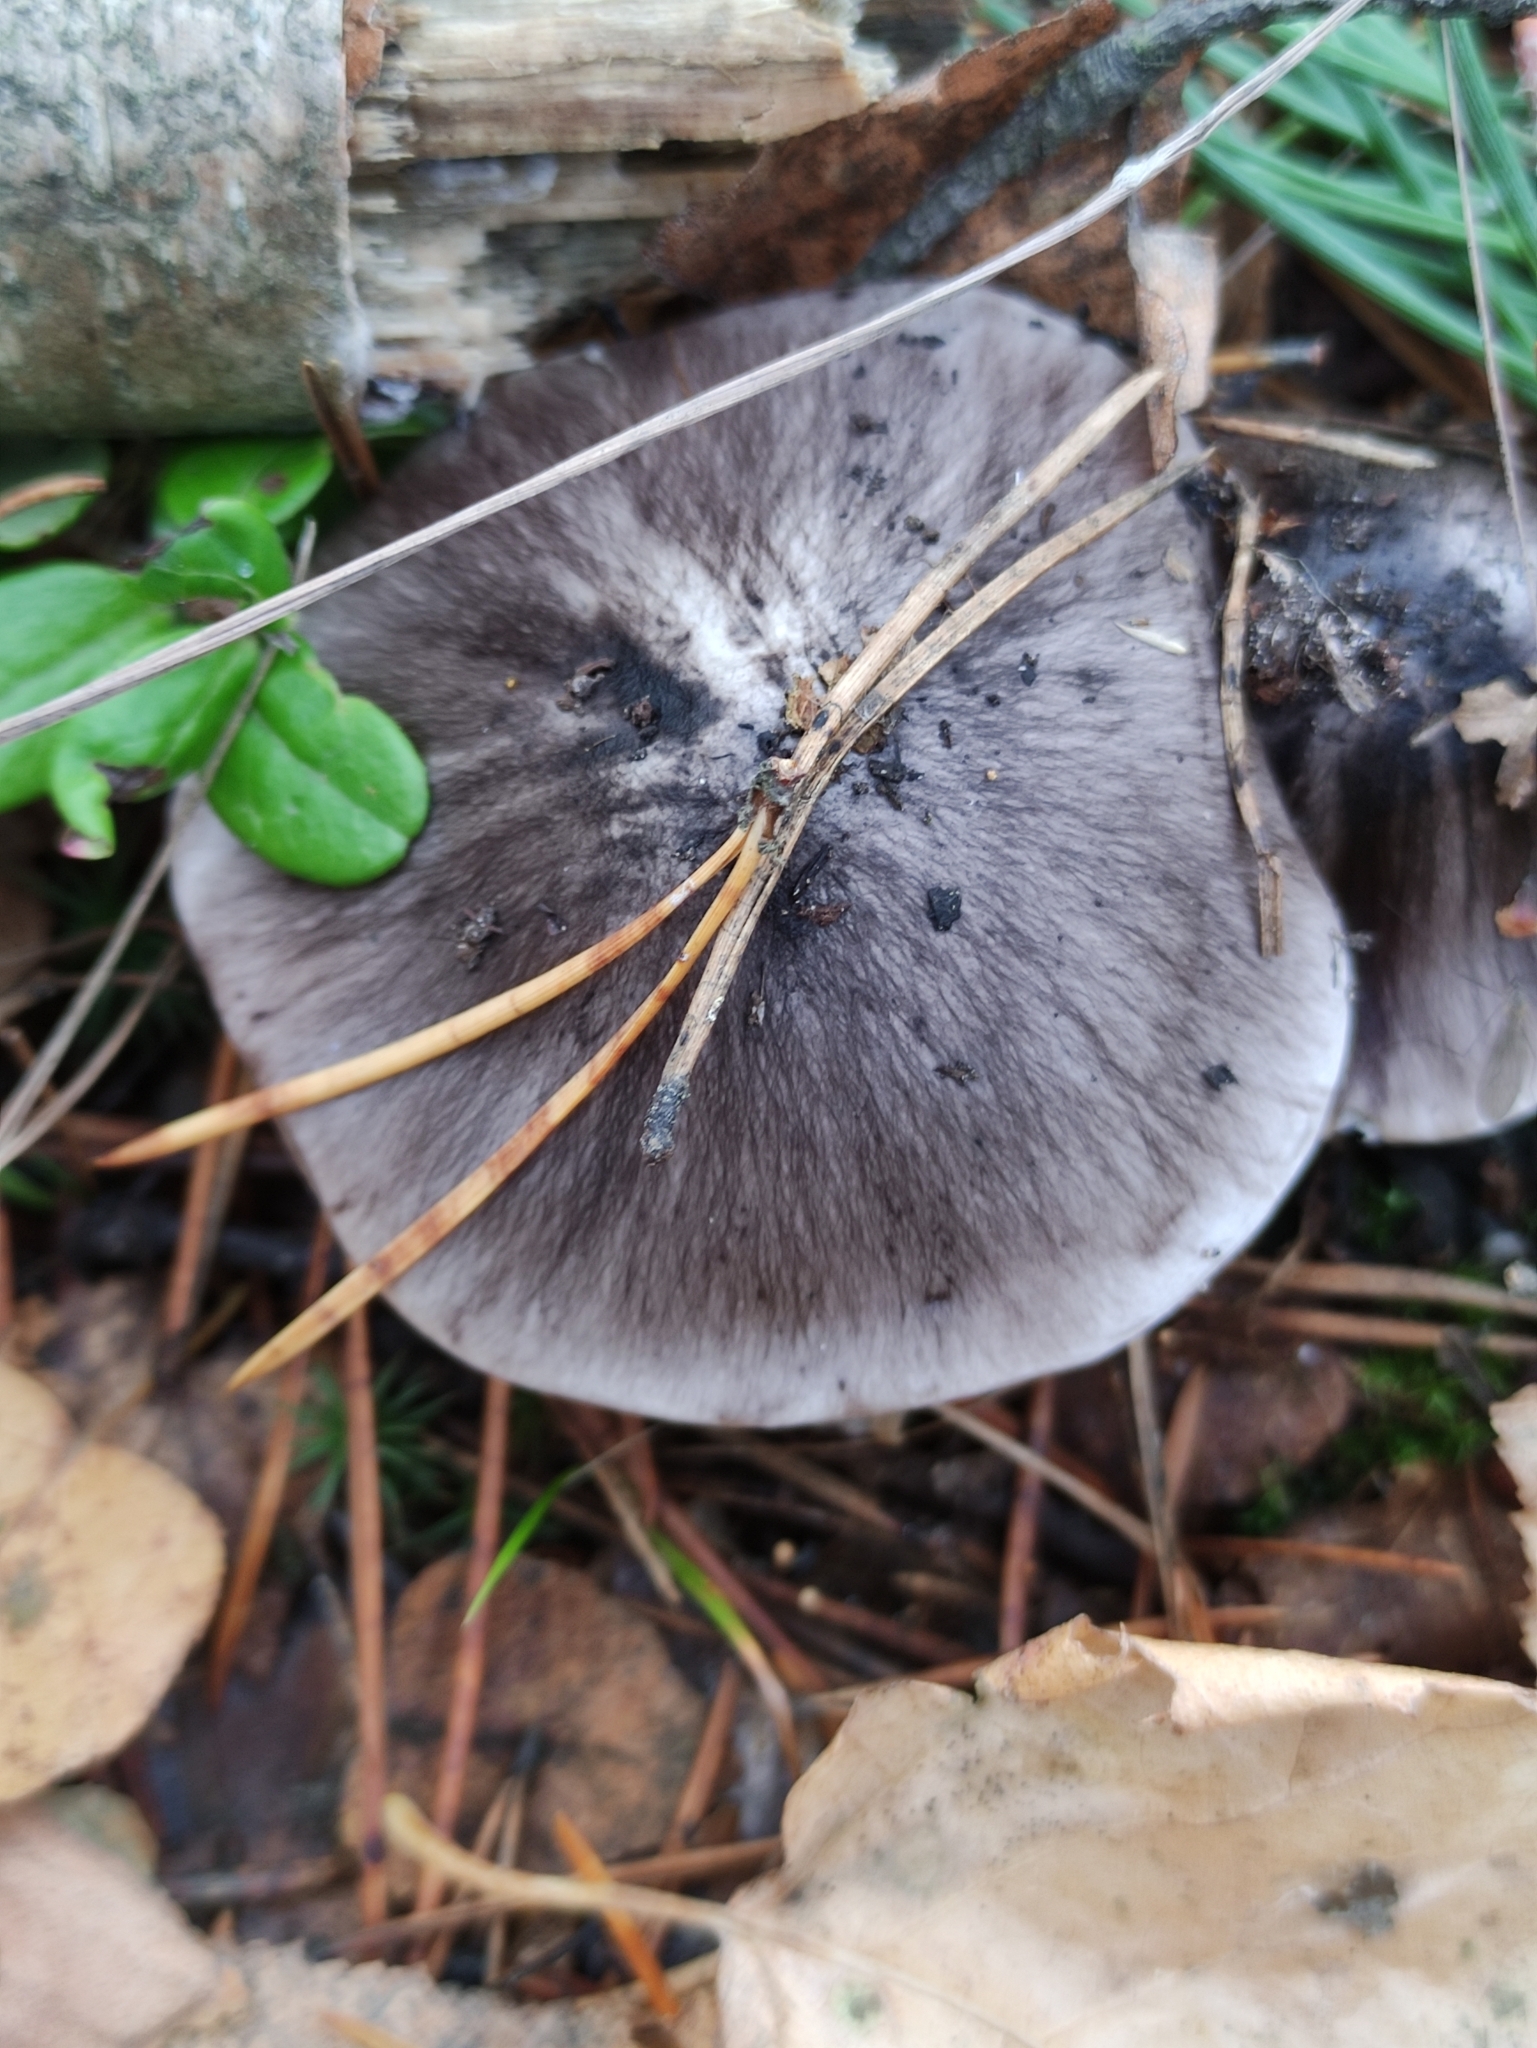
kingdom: Fungi
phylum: Basidiomycota
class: Agaricomycetes
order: Agaricales
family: Tricholomataceae
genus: Tricholoma
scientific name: Tricholoma portentosum
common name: Coalman
